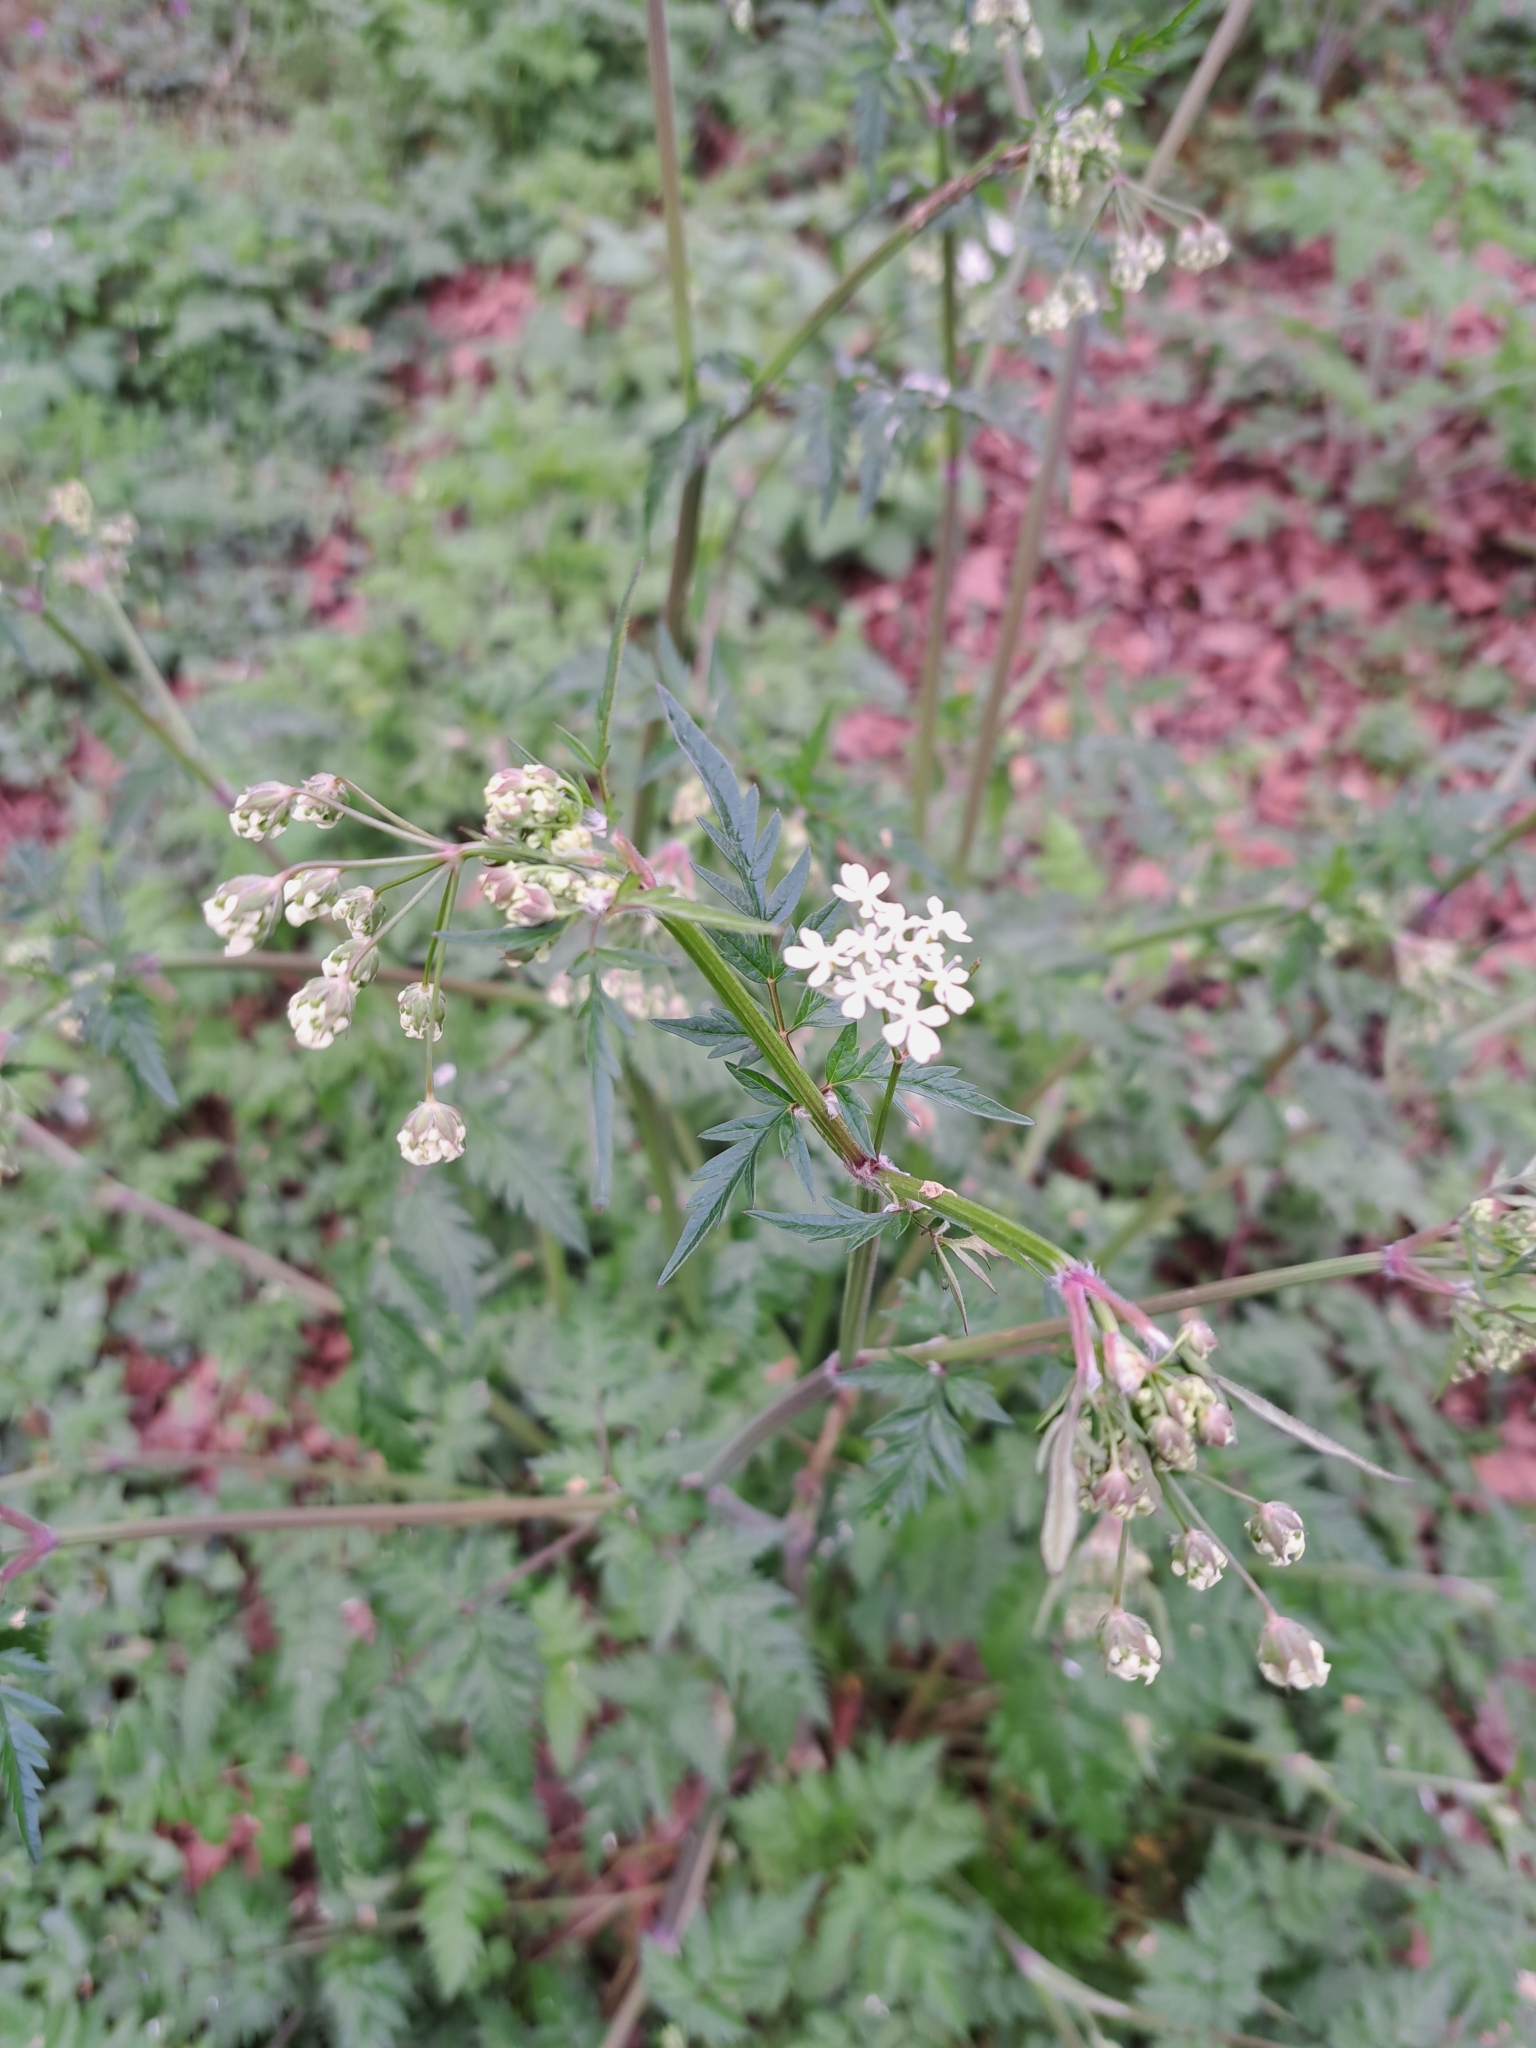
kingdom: Plantae
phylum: Tracheophyta
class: Magnoliopsida
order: Apiales
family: Apiaceae
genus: Anthriscus
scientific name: Anthriscus sylvestris
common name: Cow parsley
